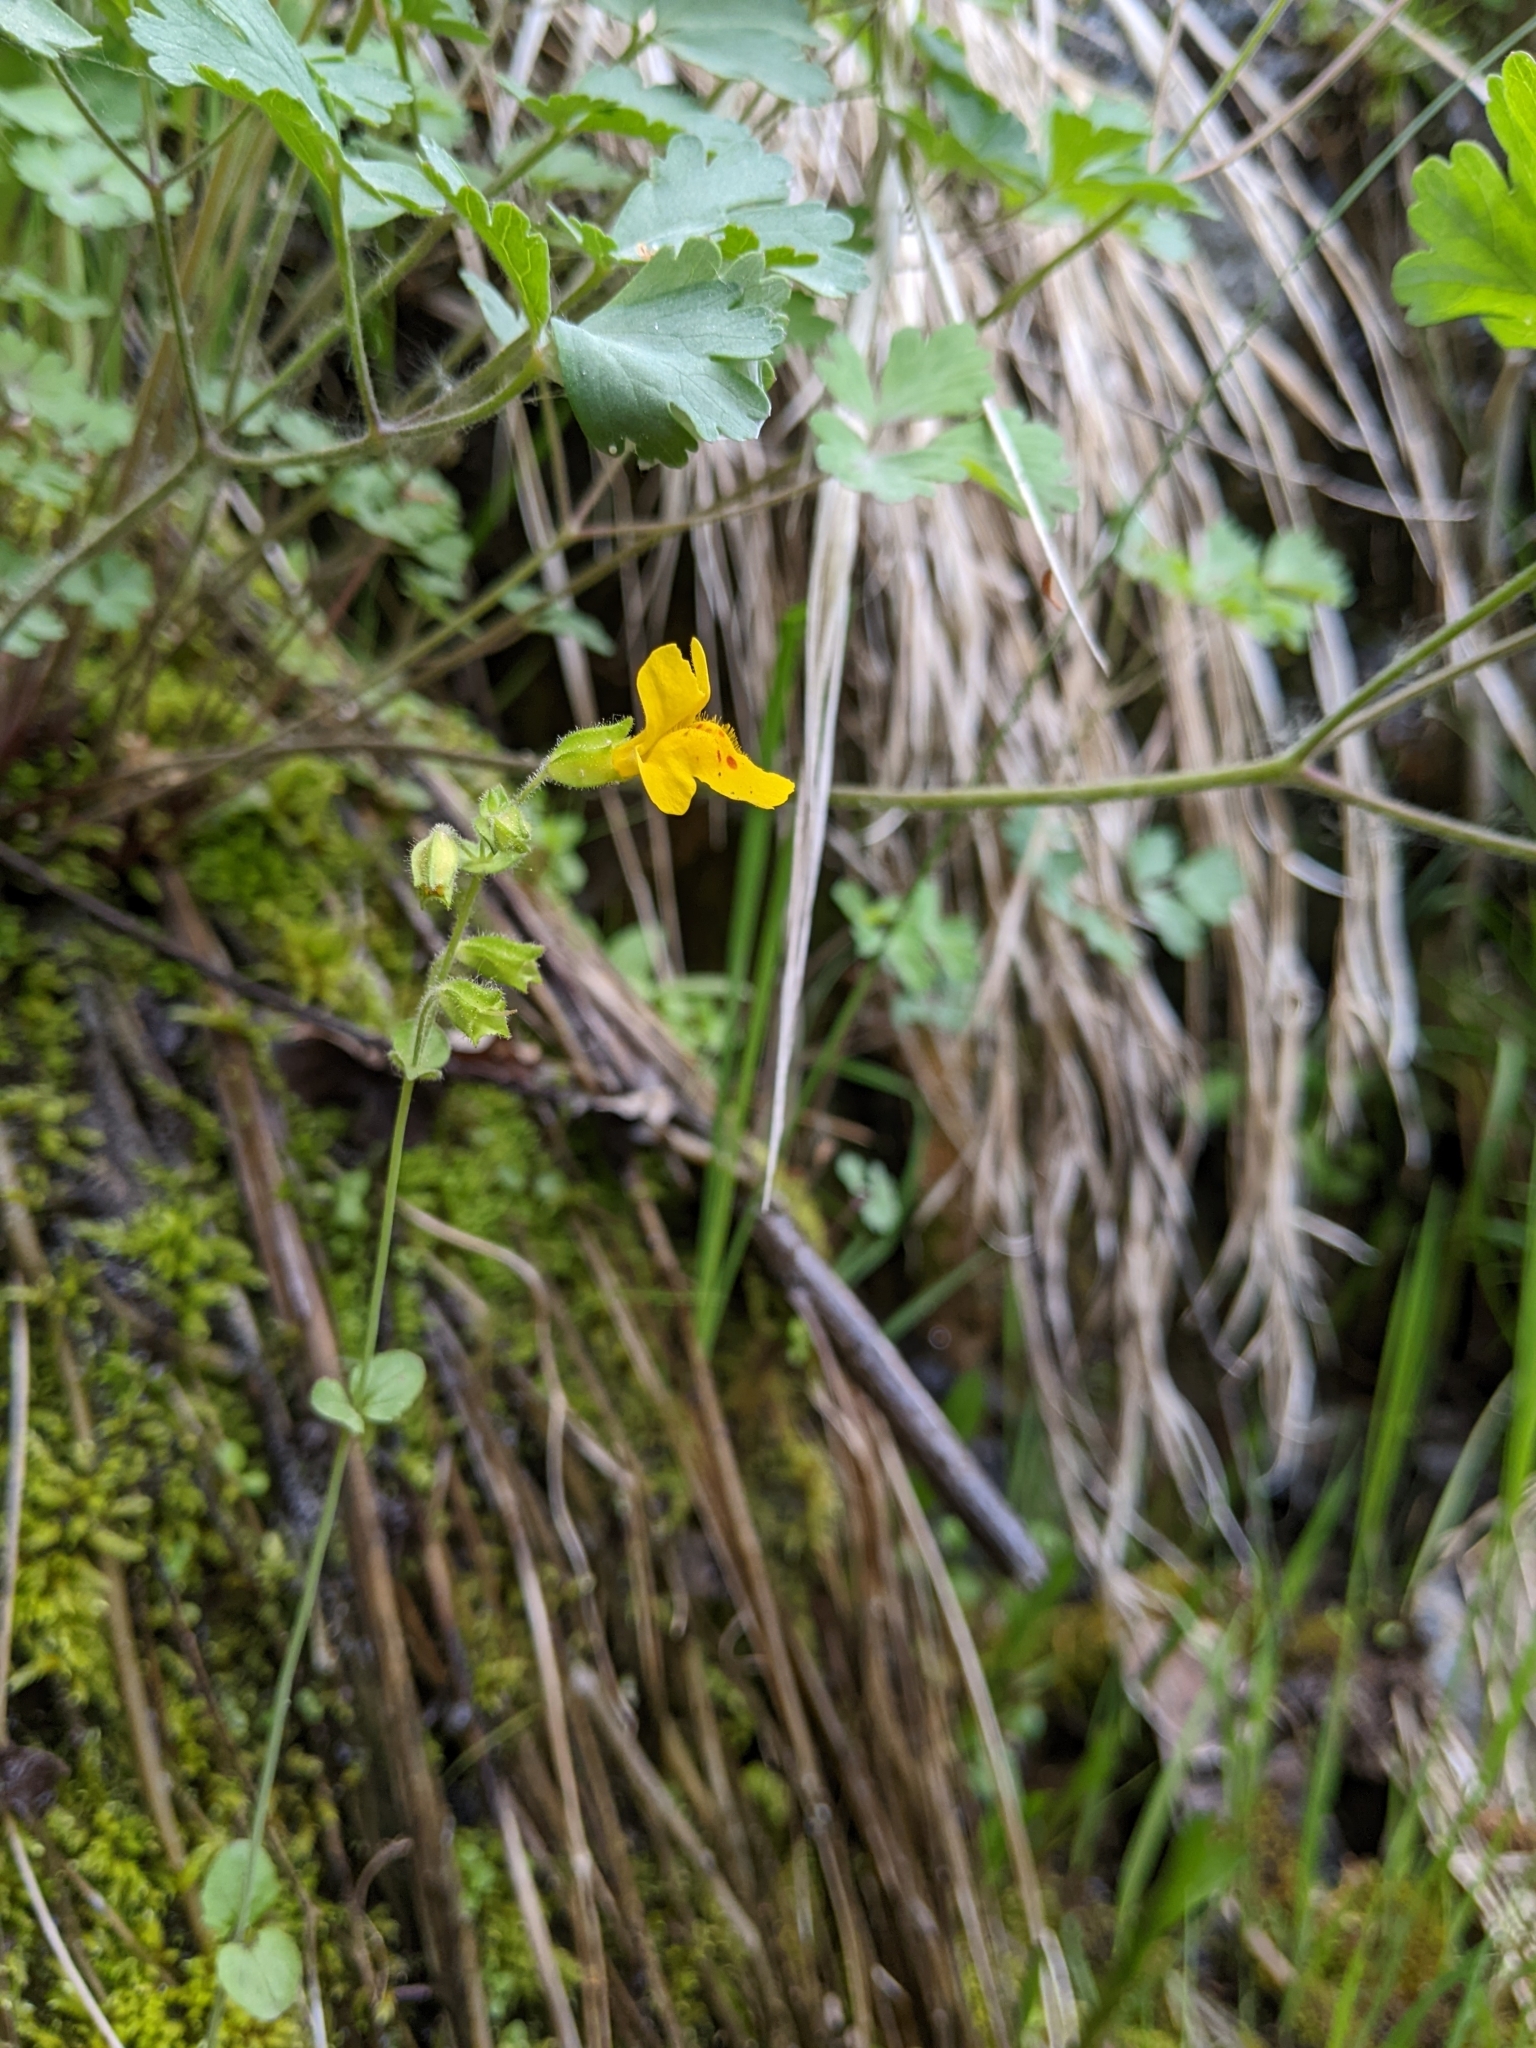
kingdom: Plantae
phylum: Tracheophyta
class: Magnoliopsida
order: Lamiales
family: Phrymaceae
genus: Erythranthe
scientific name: Erythranthe microphylla
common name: Bentham's monkeyflower
